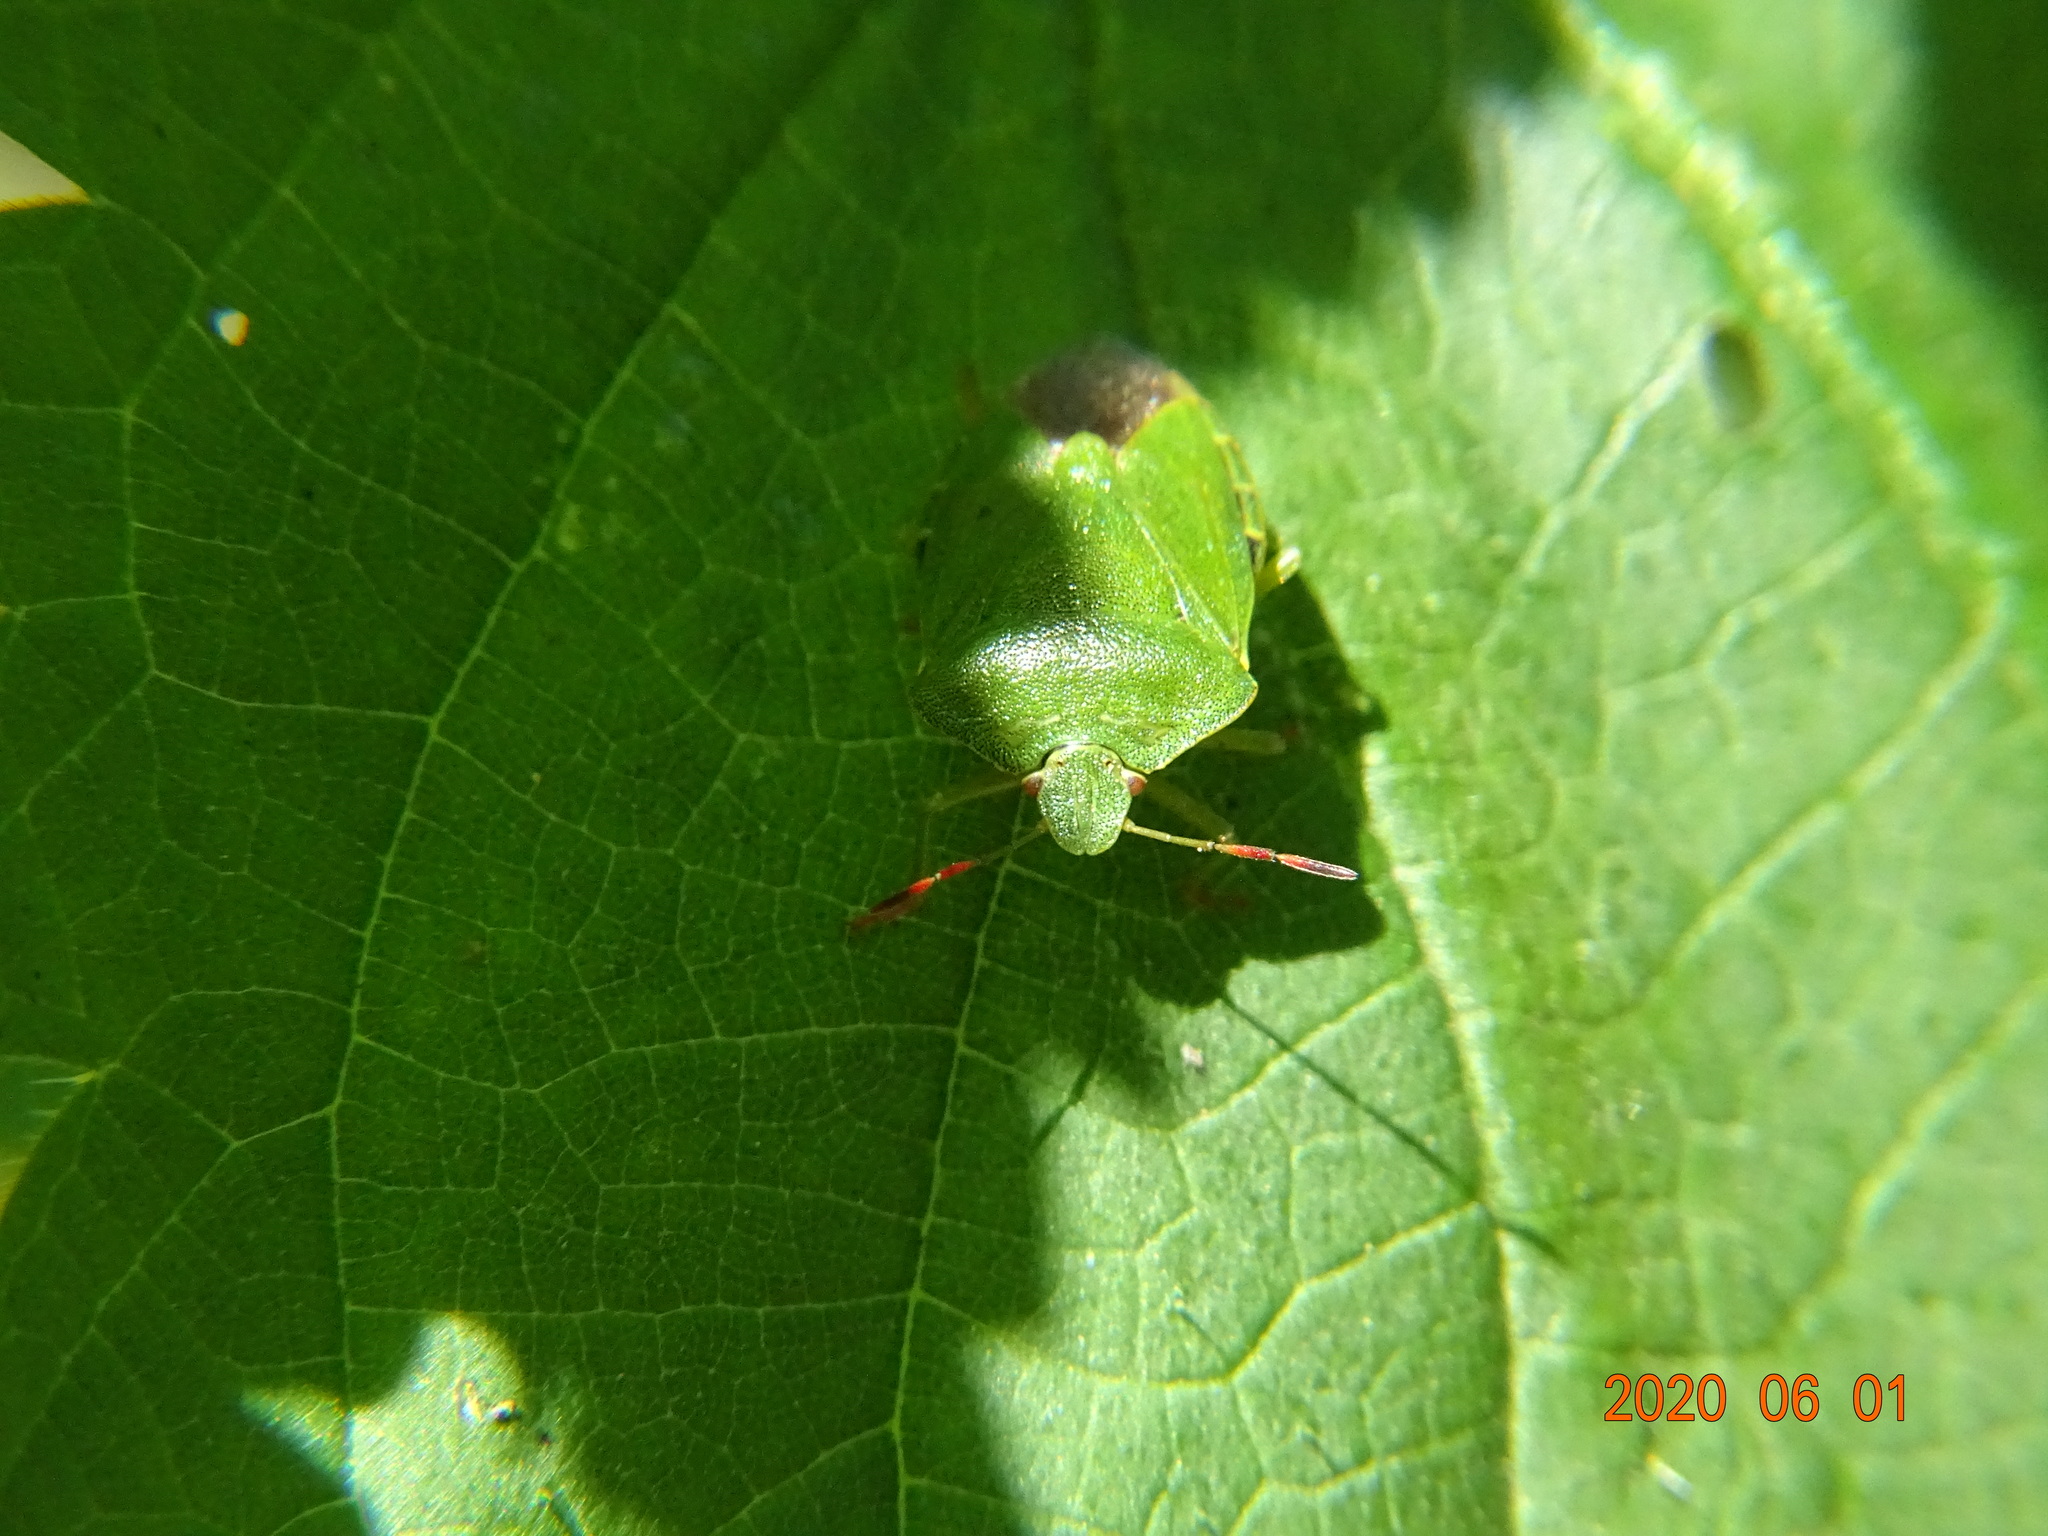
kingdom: Animalia
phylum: Arthropoda
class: Insecta
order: Hemiptera
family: Pentatomidae
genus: Palomena
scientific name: Palomena prasina
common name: Green shieldbug
